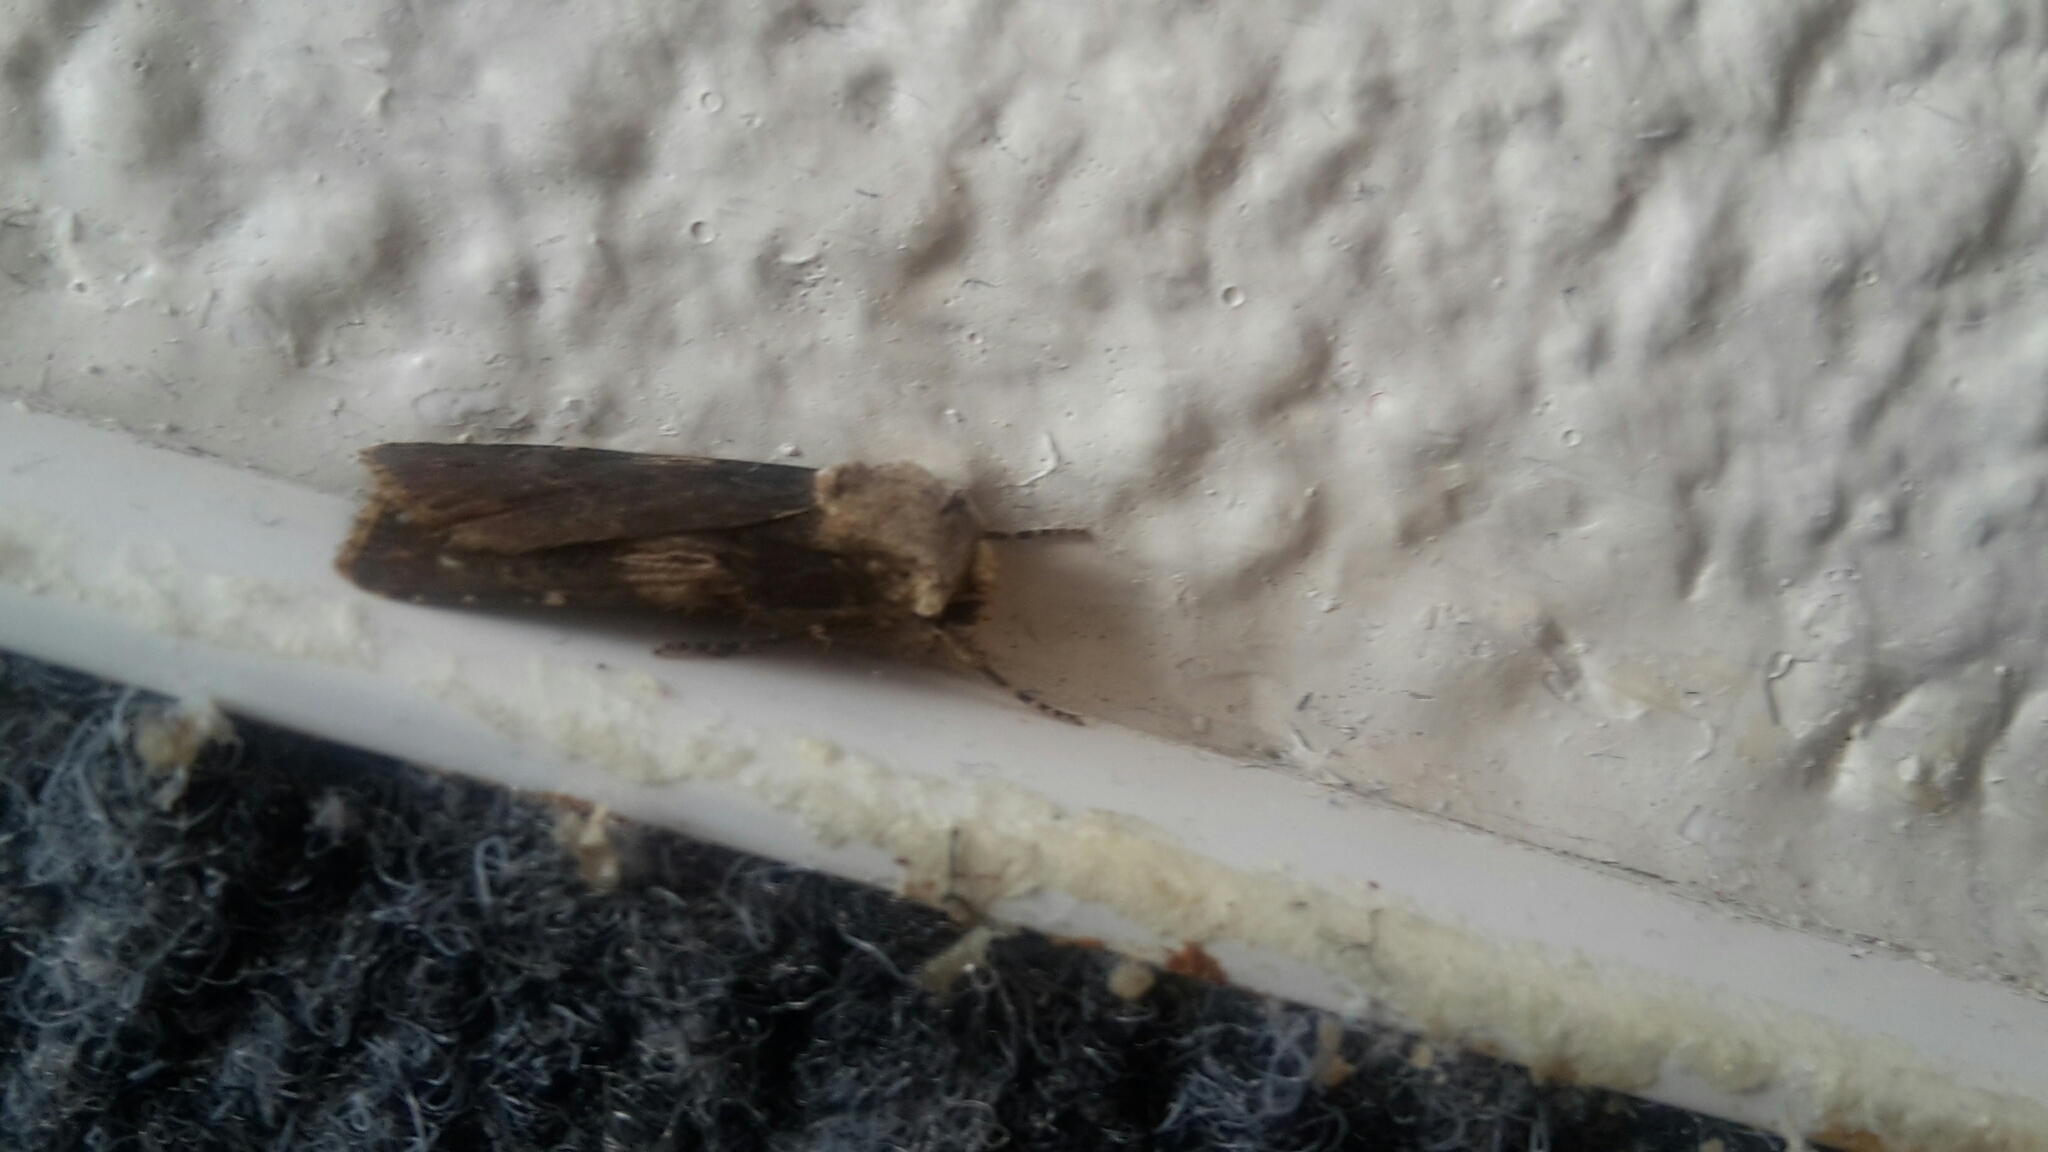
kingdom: Animalia
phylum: Arthropoda
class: Insecta
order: Lepidoptera
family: Noctuidae
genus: Agrotis
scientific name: Agrotis puta
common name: Shuttle-shaped dart
